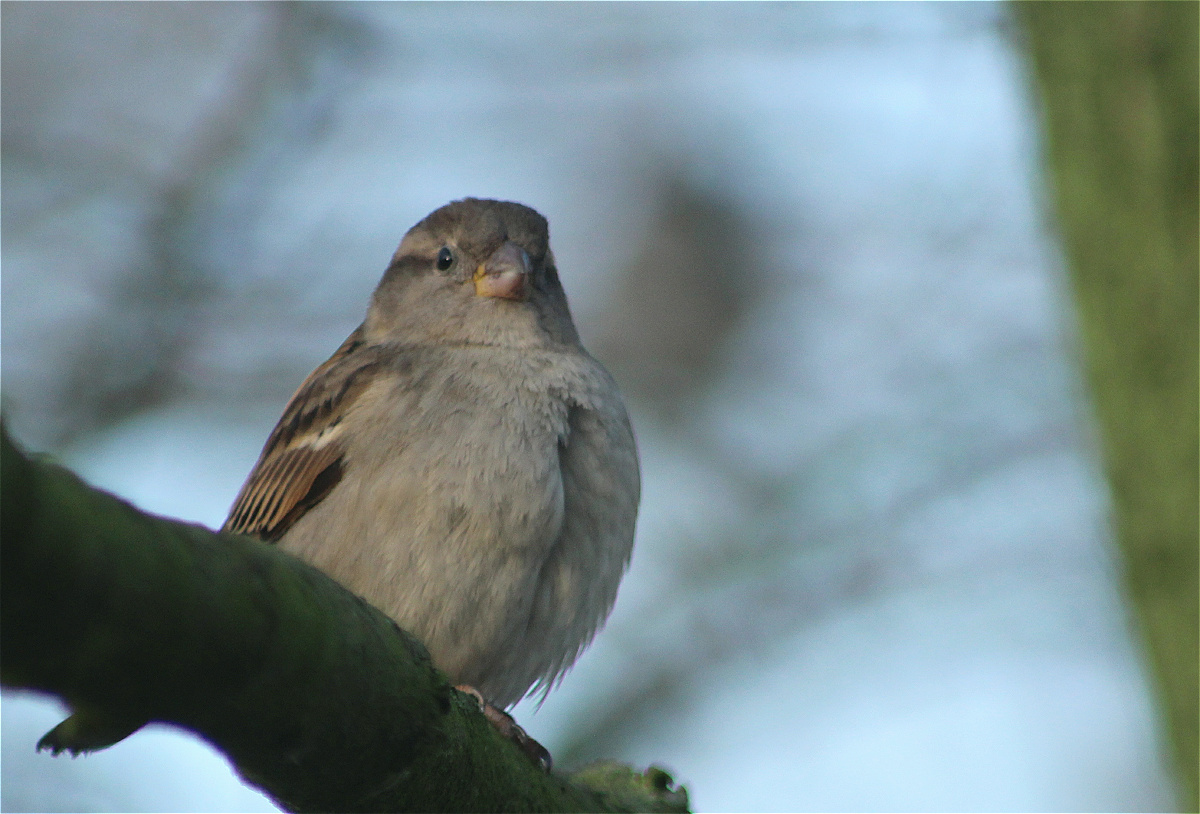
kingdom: Animalia
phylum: Chordata
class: Aves
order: Passeriformes
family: Passeridae
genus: Passer
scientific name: Passer domesticus
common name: House sparrow
